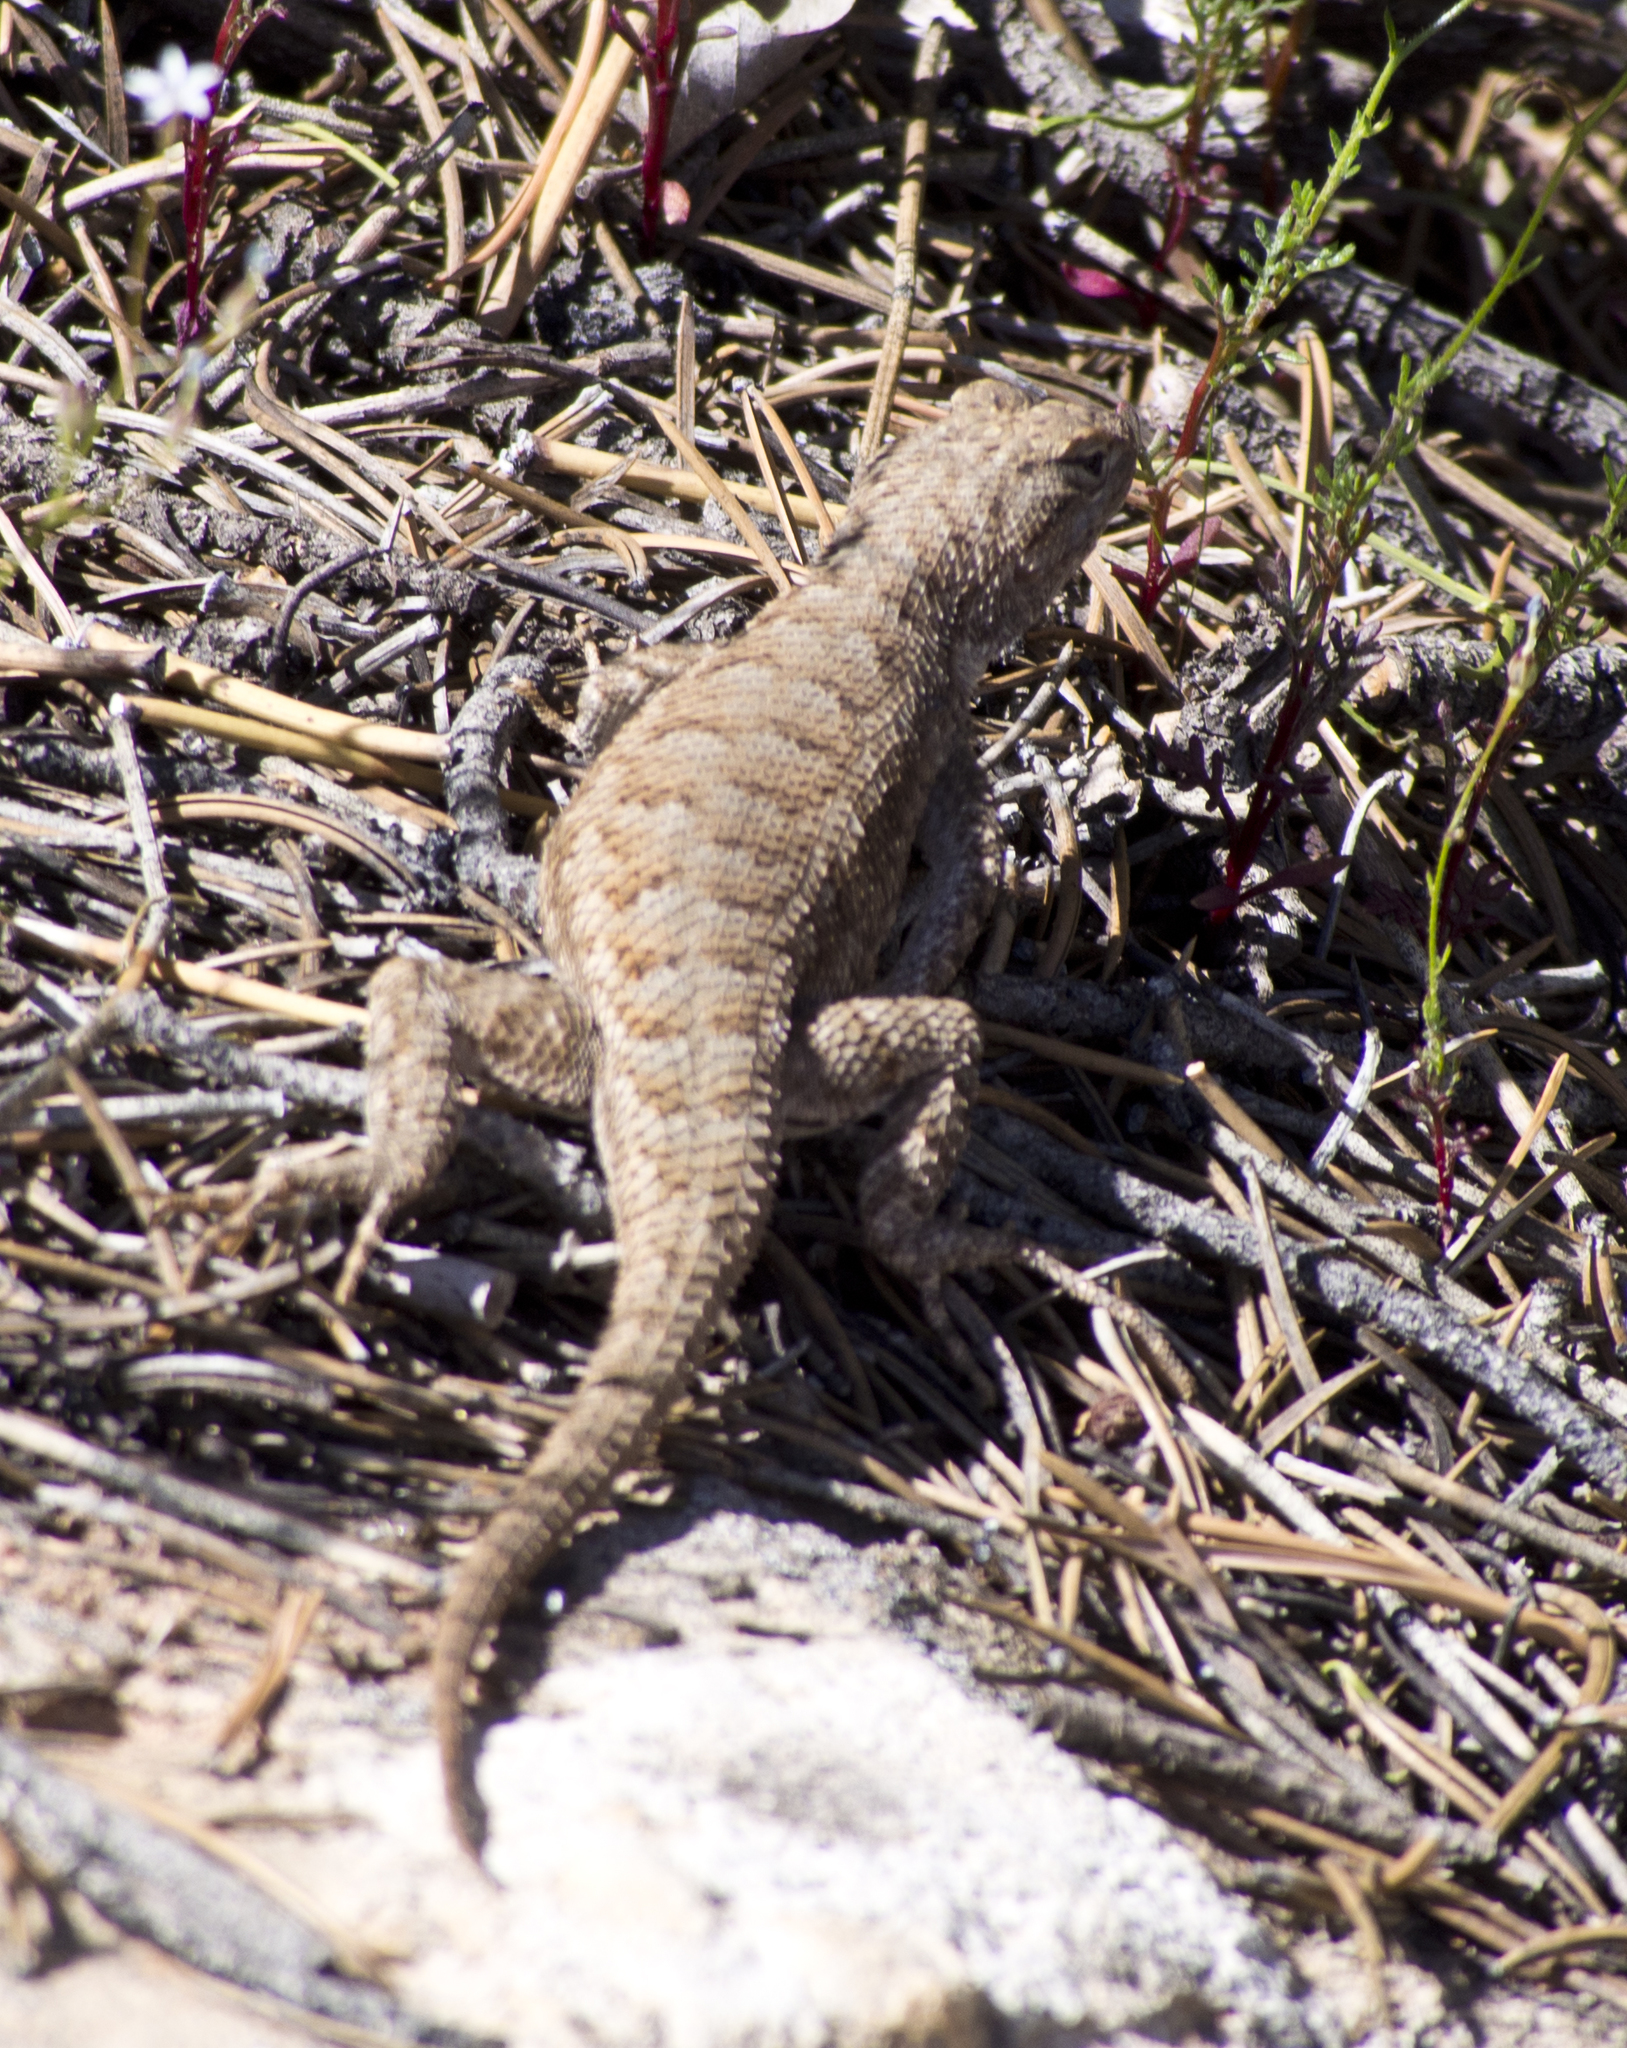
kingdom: Animalia
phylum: Chordata
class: Squamata
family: Phrynosomatidae
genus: Sceloporus
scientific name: Sceloporus tristichus
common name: Plateau fence lizard
